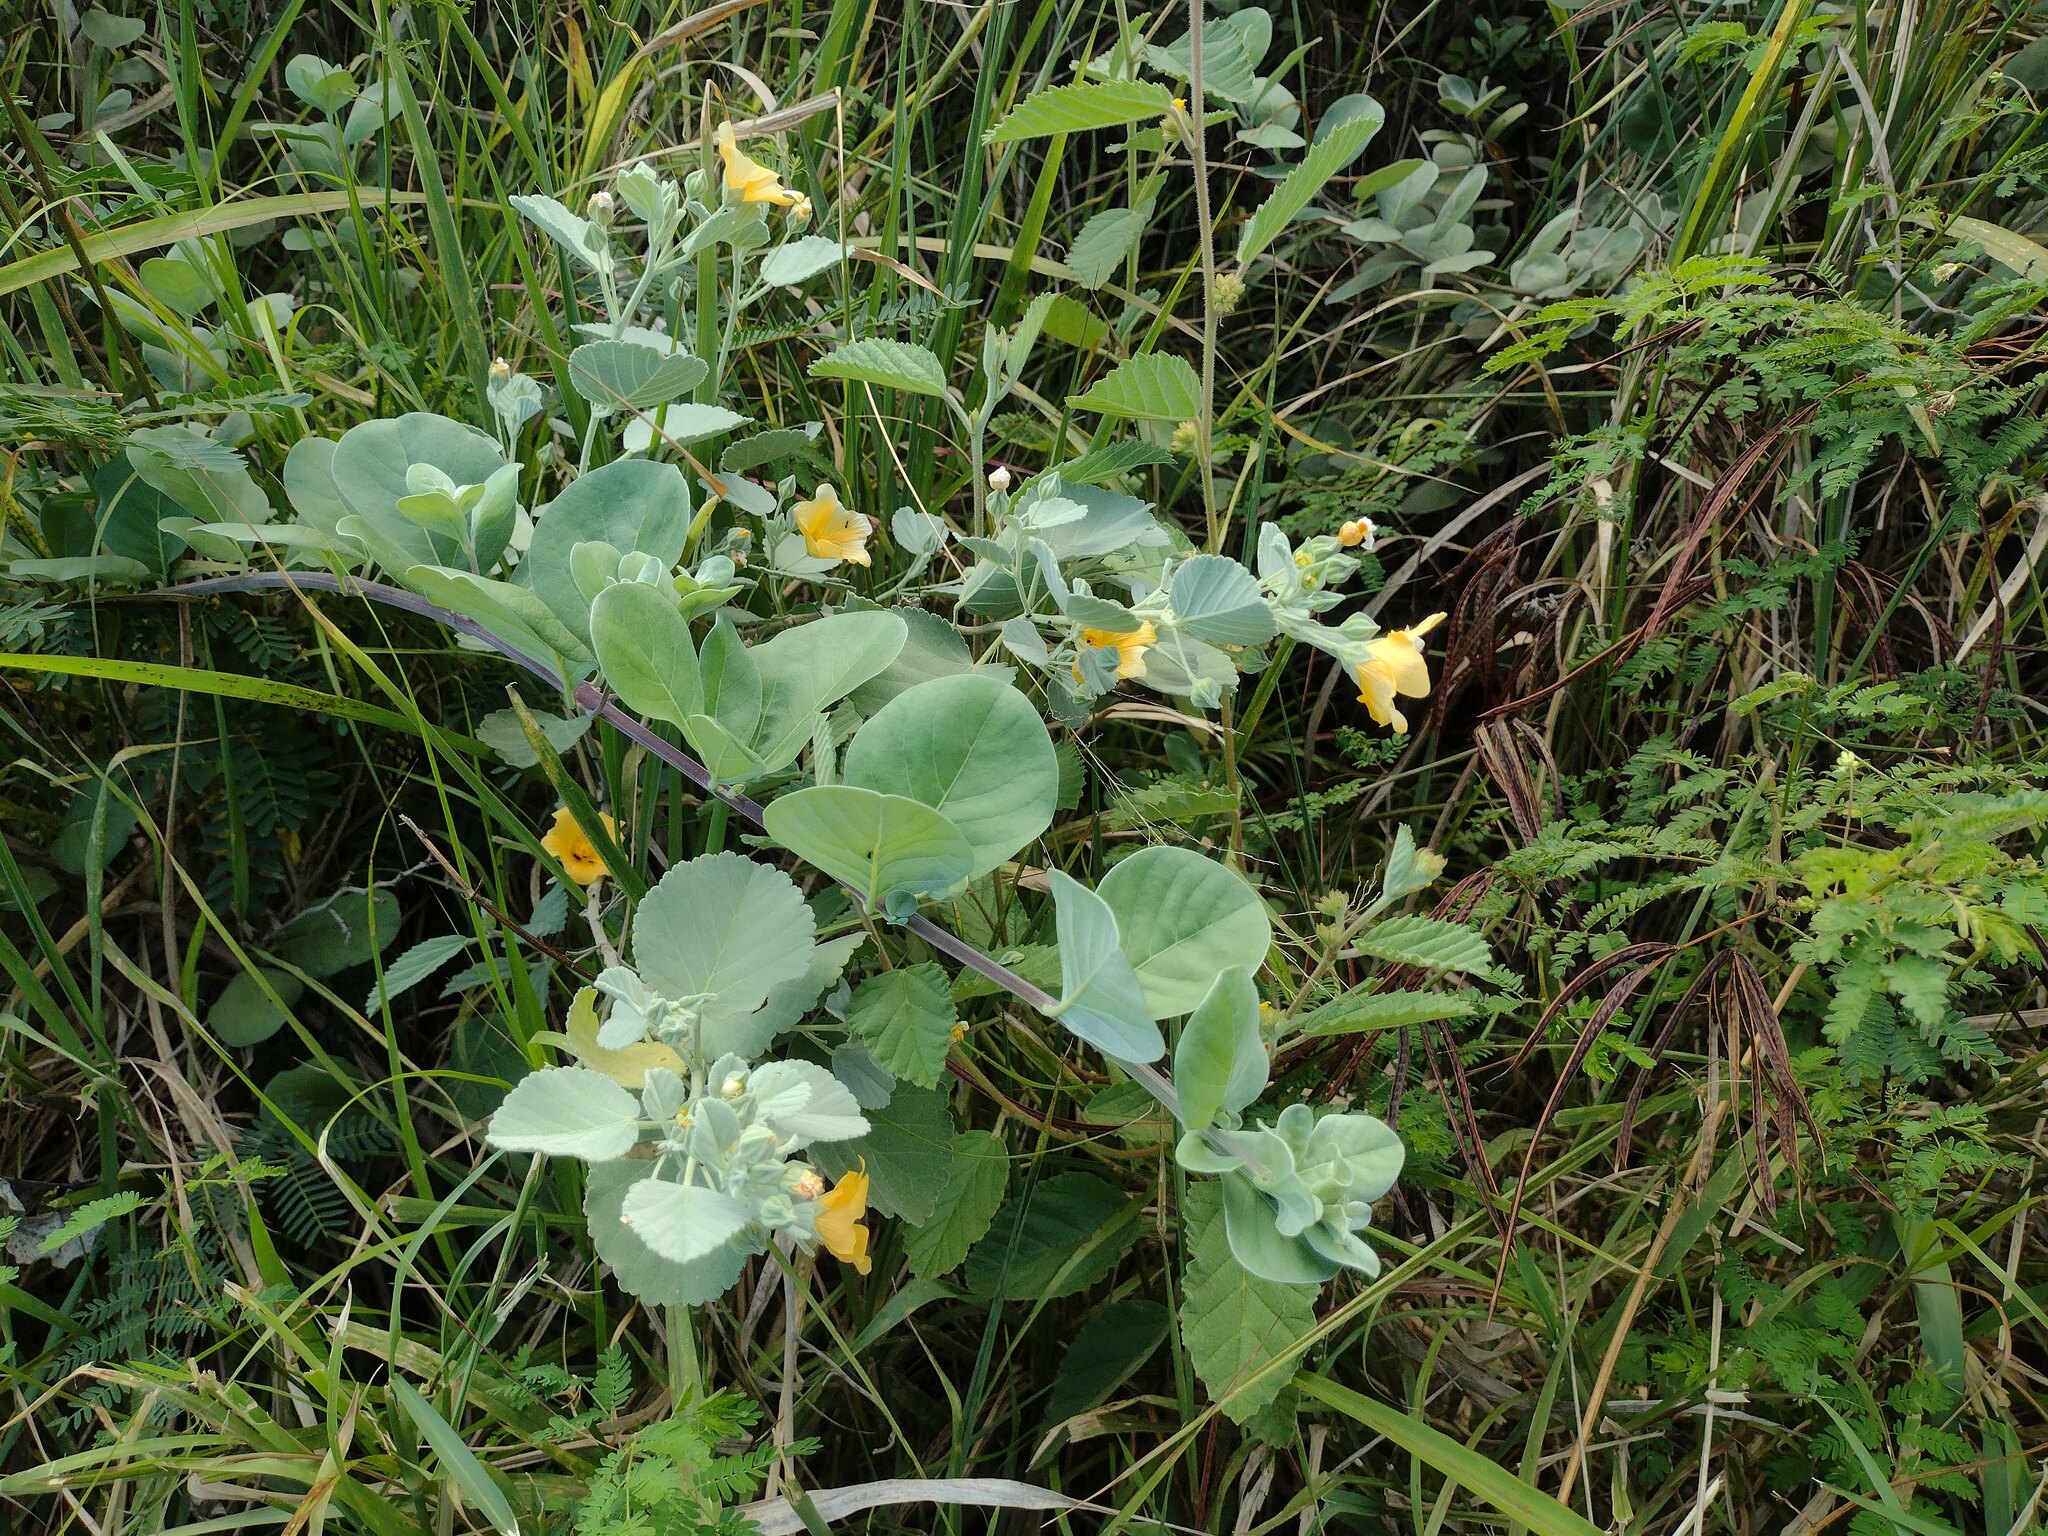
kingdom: Plantae
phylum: Tracheophyta
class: Magnoliopsida
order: Malvales
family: Malvaceae
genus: Sida
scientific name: Sida fallax
